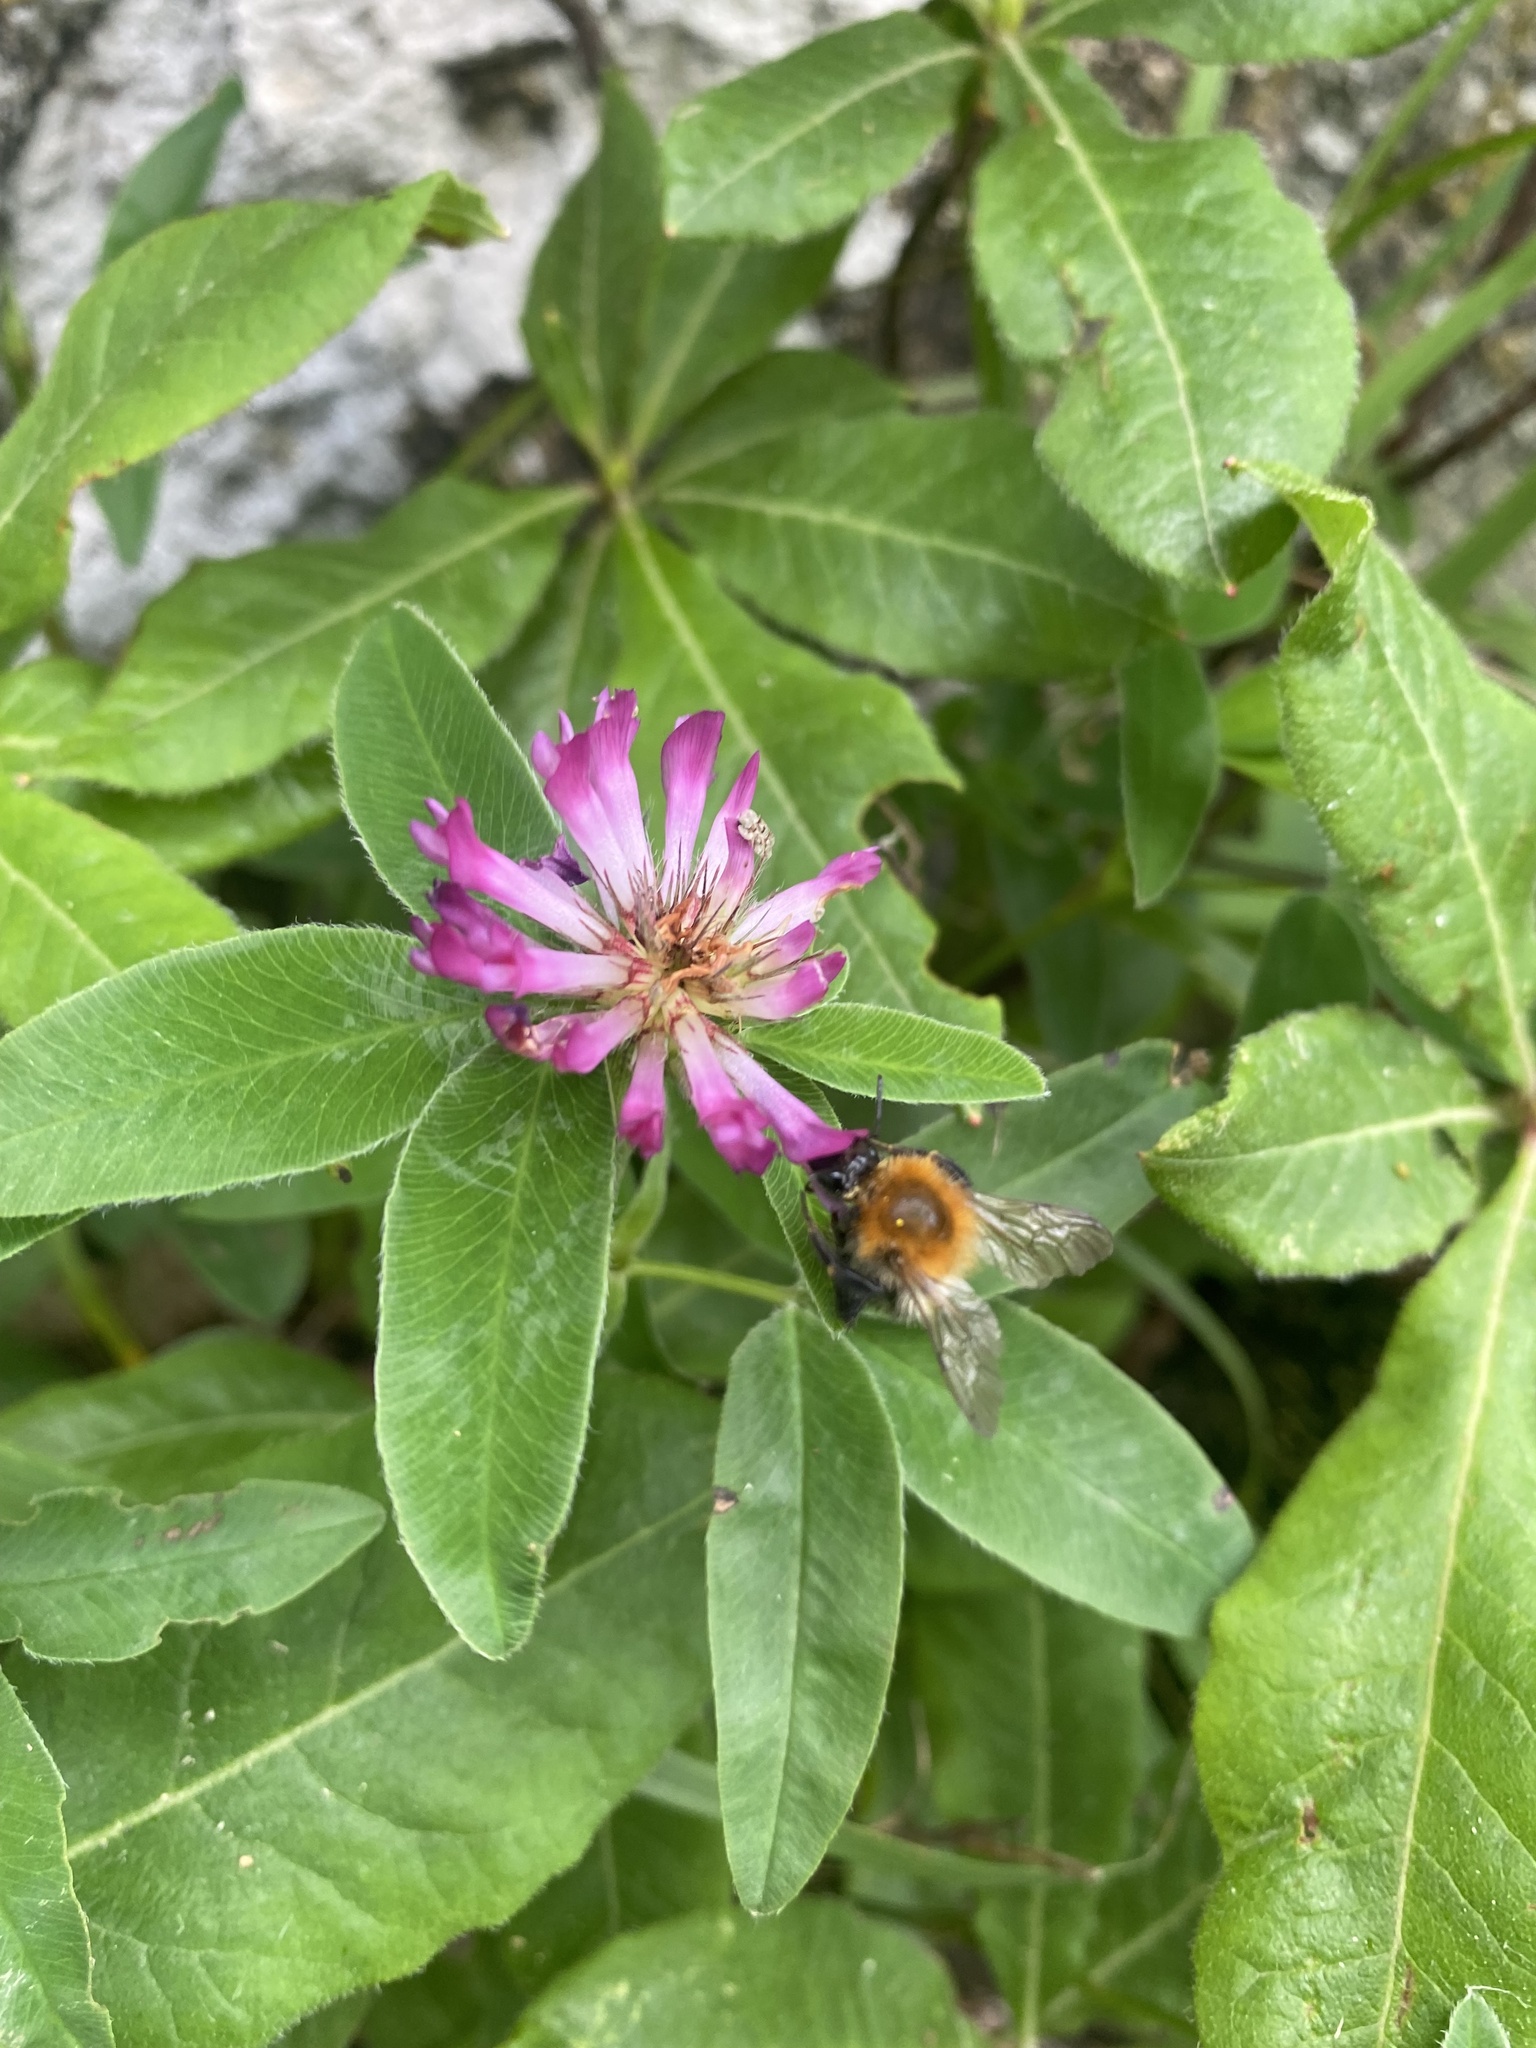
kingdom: Plantae
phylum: Tracheophyta
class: Magnoliopsida
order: Fabales
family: Fabaceae
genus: Trifolium
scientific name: Trifolium medium
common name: Zigzag clover
